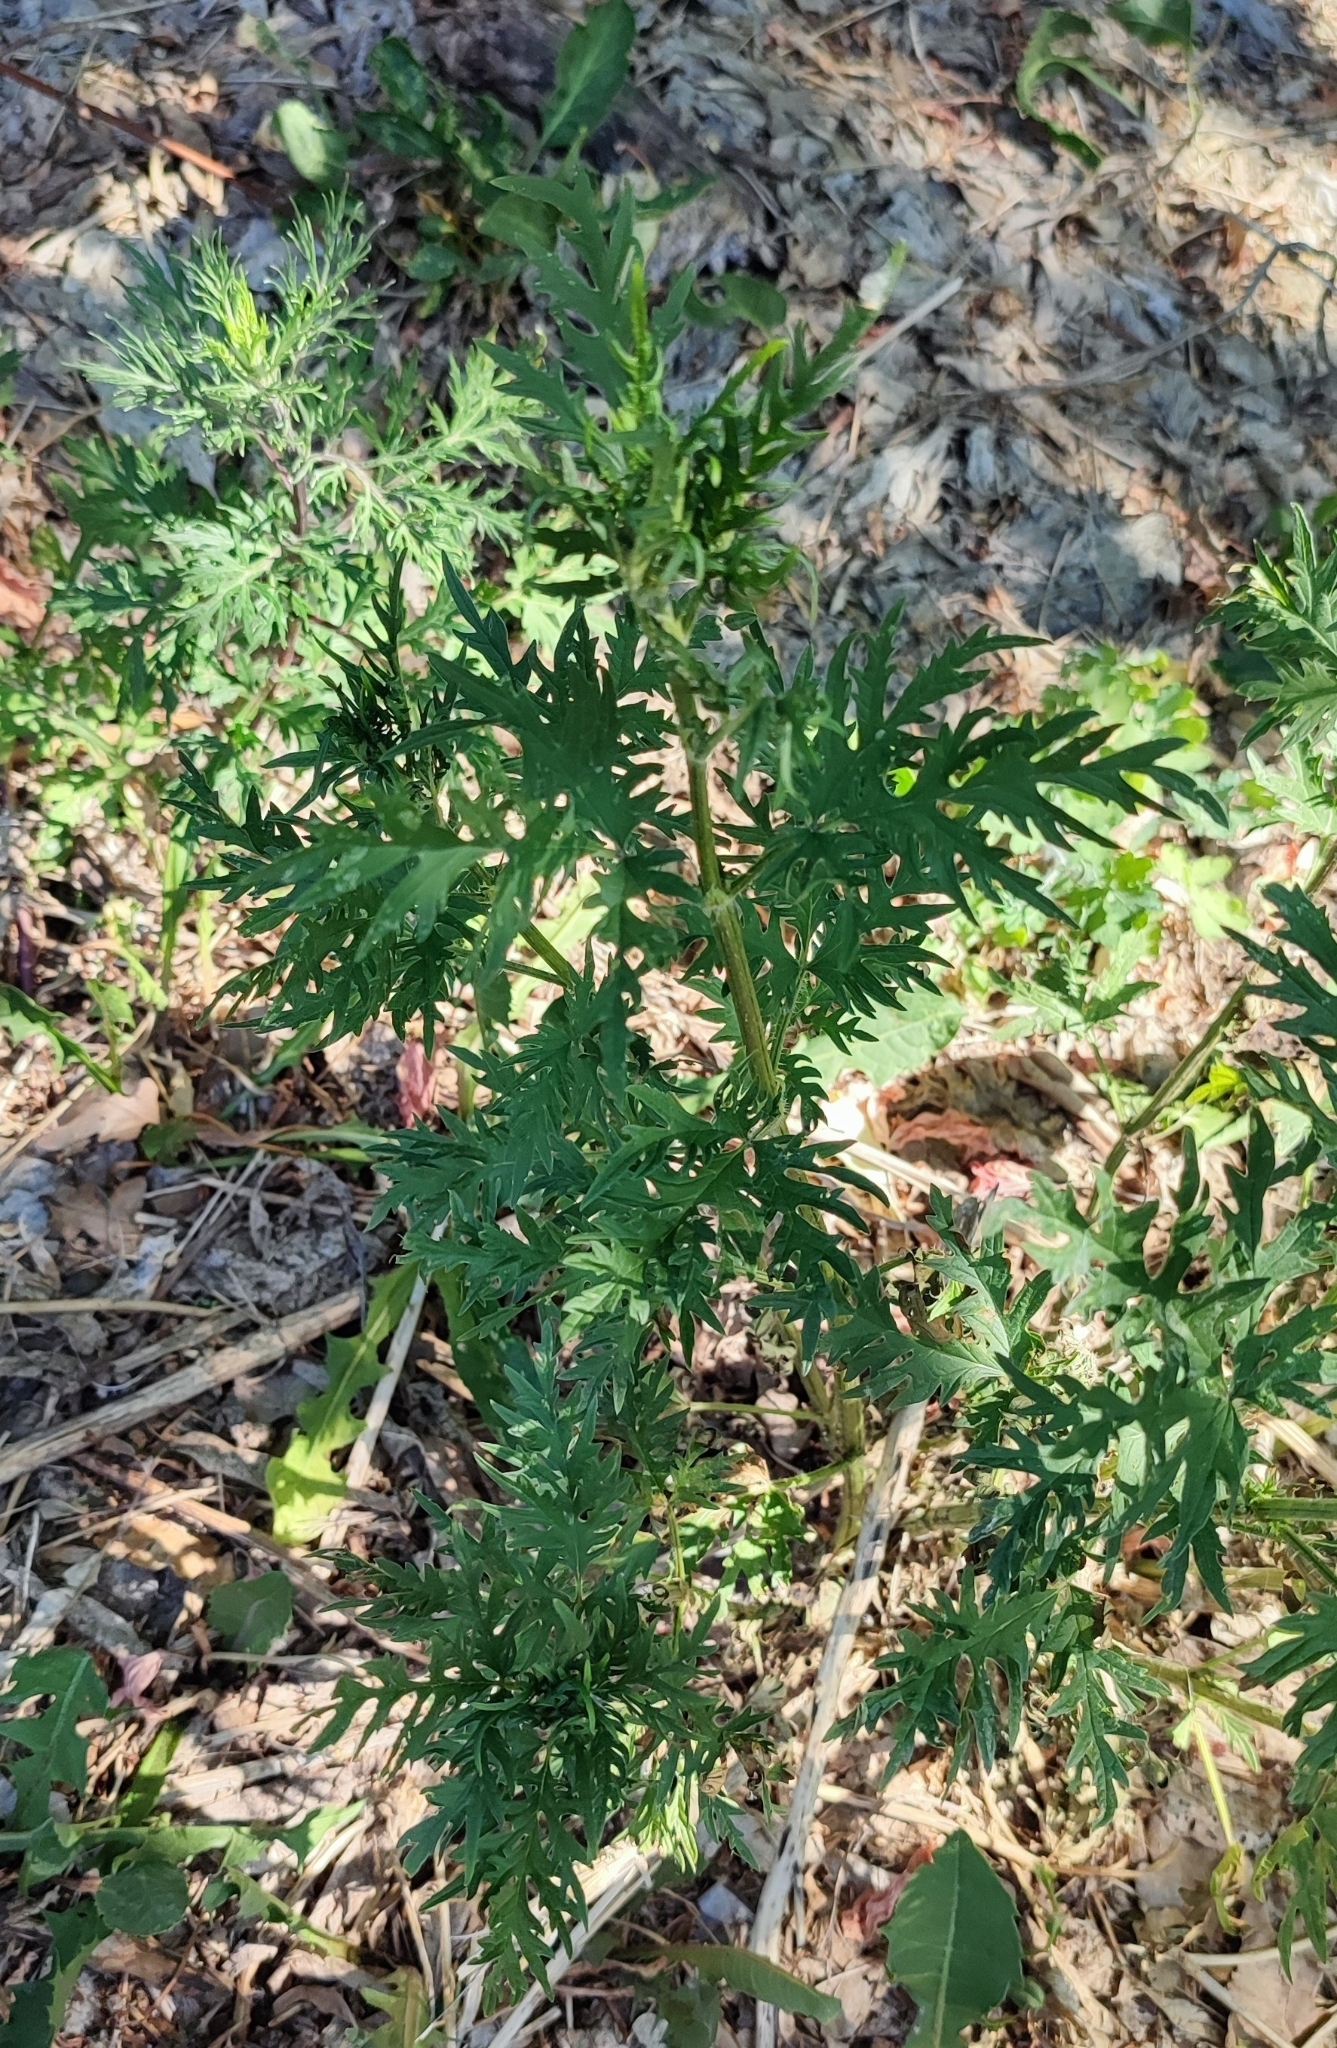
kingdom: Plantae
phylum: Tracheophyta
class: Magnoliopsida
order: Rosales
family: Urticaceae
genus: Urtica
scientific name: Urtica cannabina
